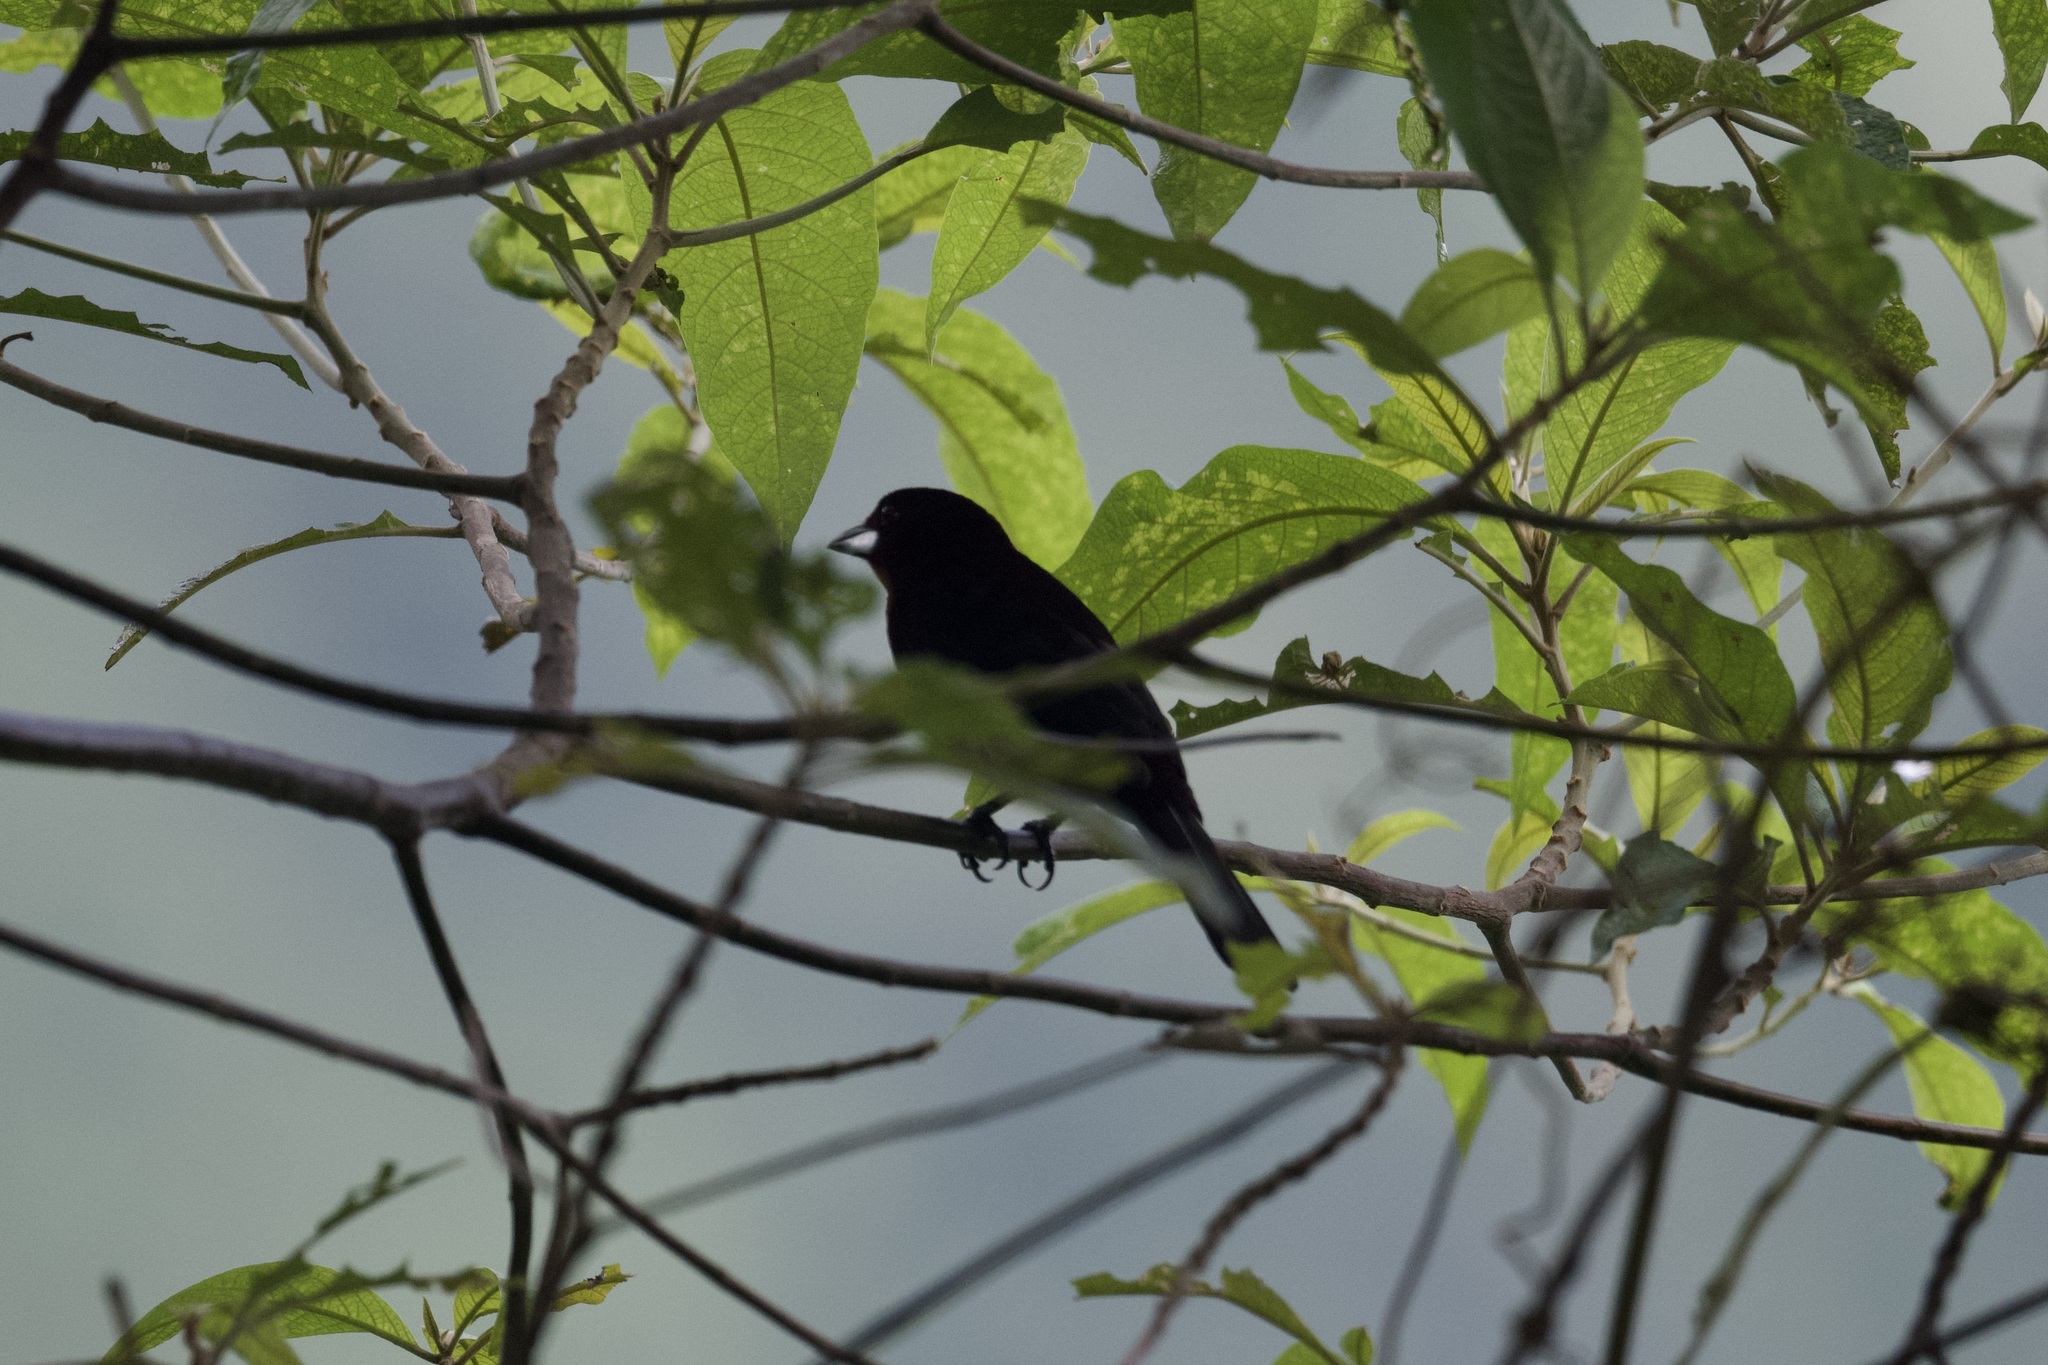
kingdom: Animalia
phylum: Chordata
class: Aves
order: Passeriformes
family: Thraupidae
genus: Ramphocelus
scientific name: Ramphocelus carbo
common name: Silver-beaked tanager
